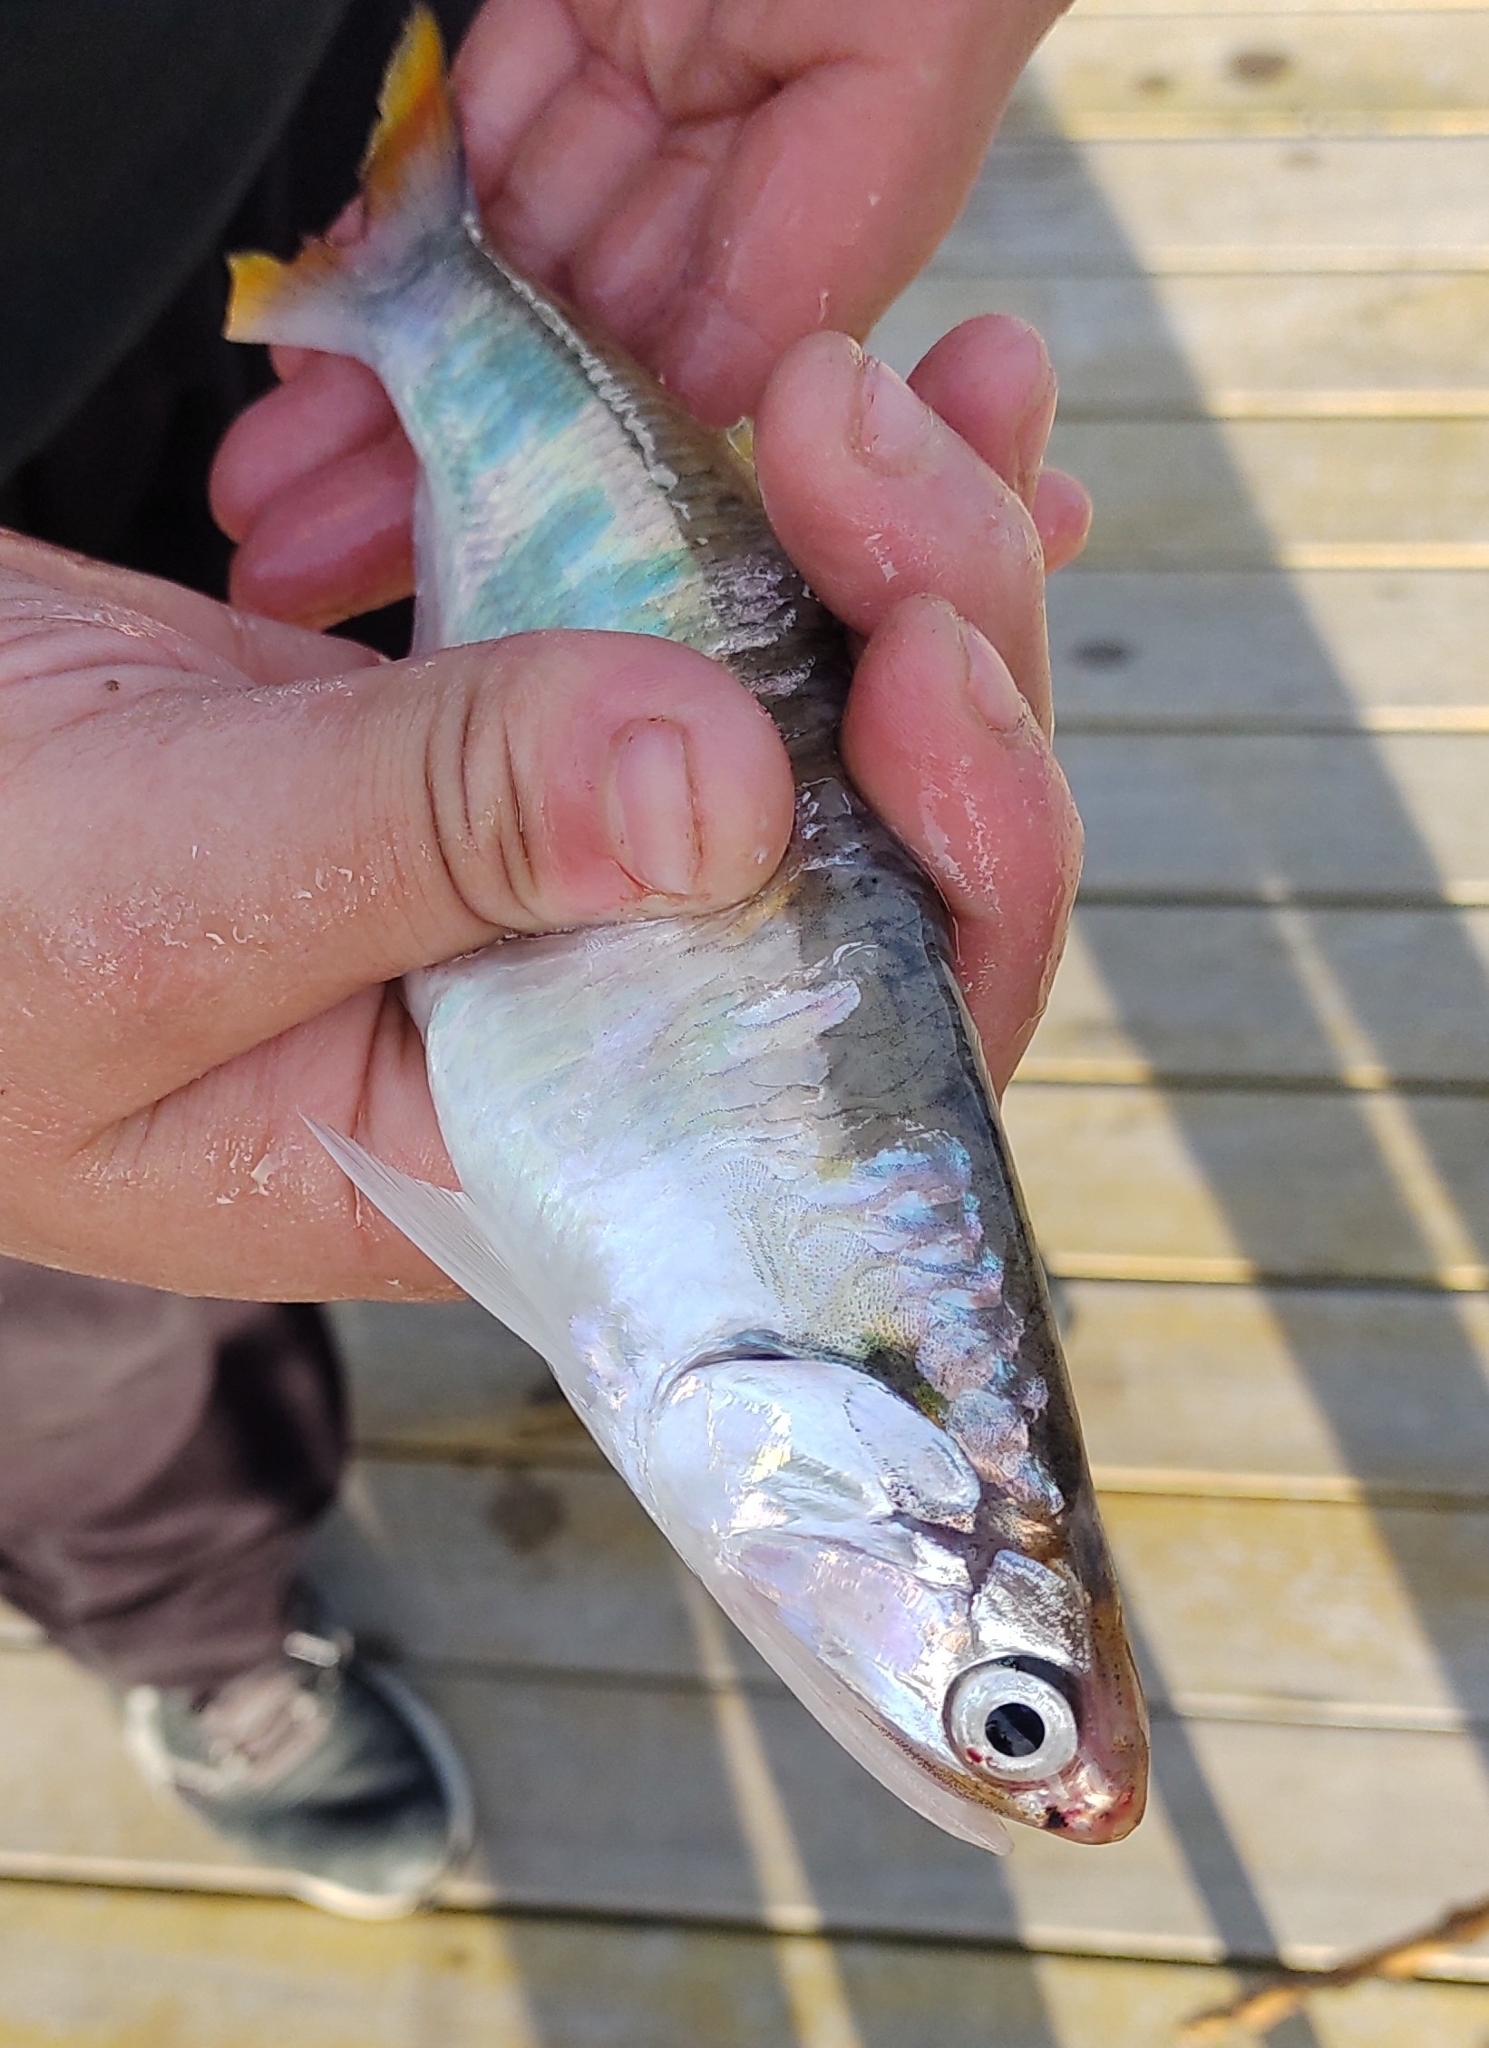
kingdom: Animalia
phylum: Chordata
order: Clupeiformes
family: Engraulidae
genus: Lycengraulis
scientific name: Lycengraulis grossidens
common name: Atlantic sabertooth anchovy
